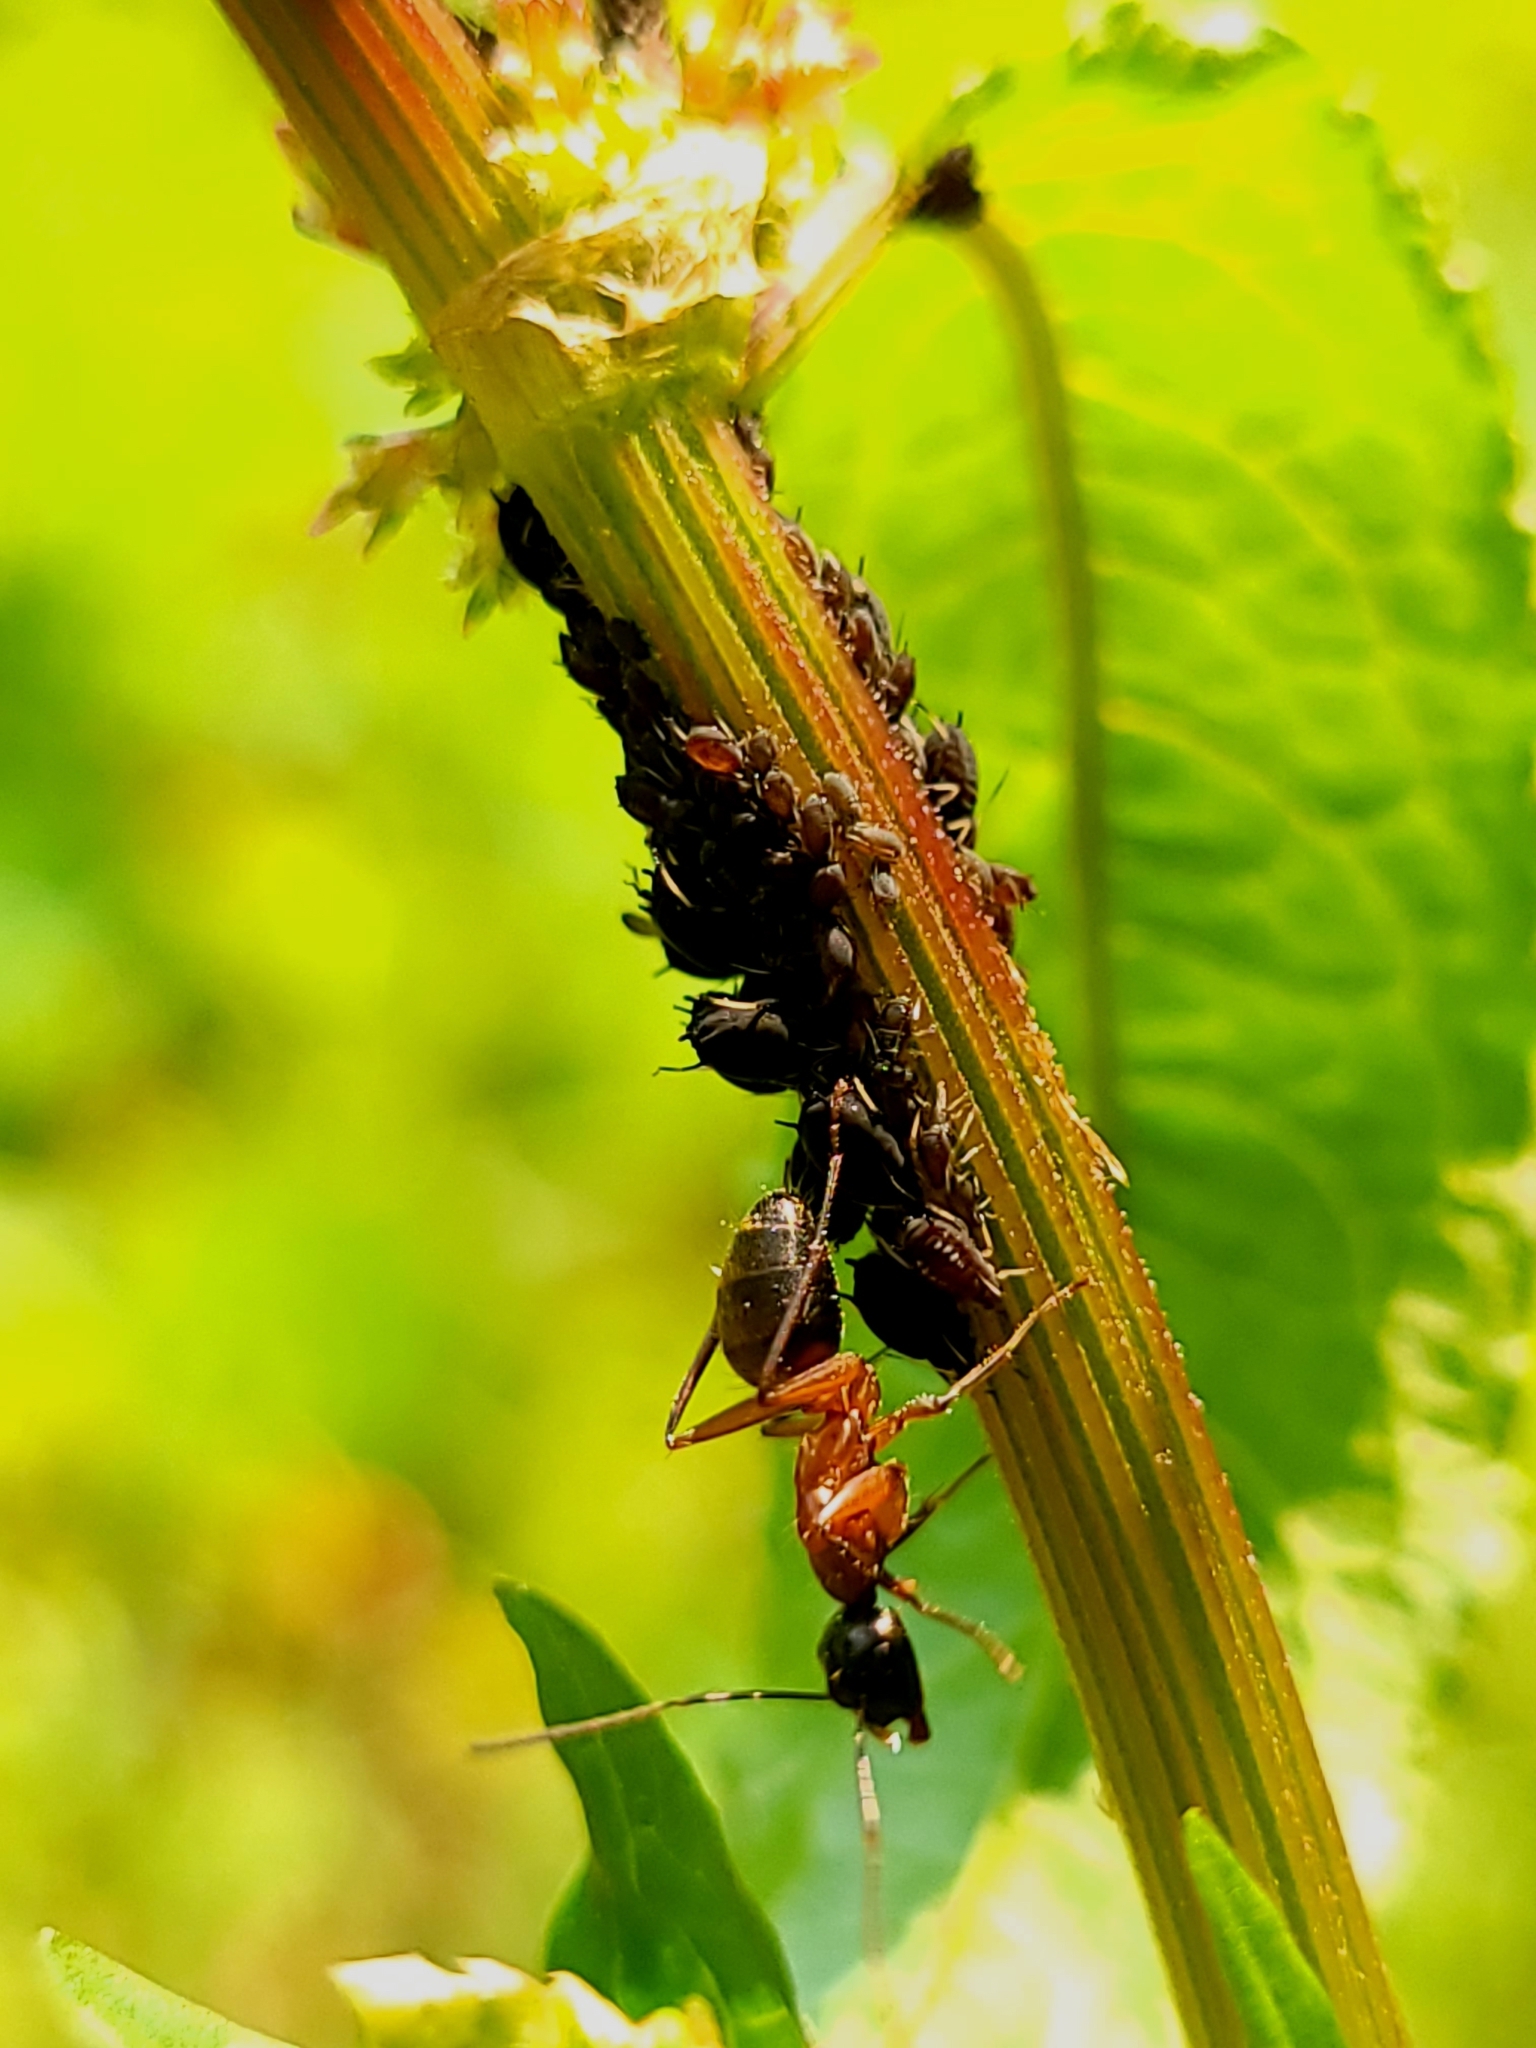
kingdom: Animalia
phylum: Arthropoda
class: Insecta
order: Hymenoptera
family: Formicidae
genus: Camponotus
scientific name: Camponotus chromaiodes
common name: Red carpenter ant
